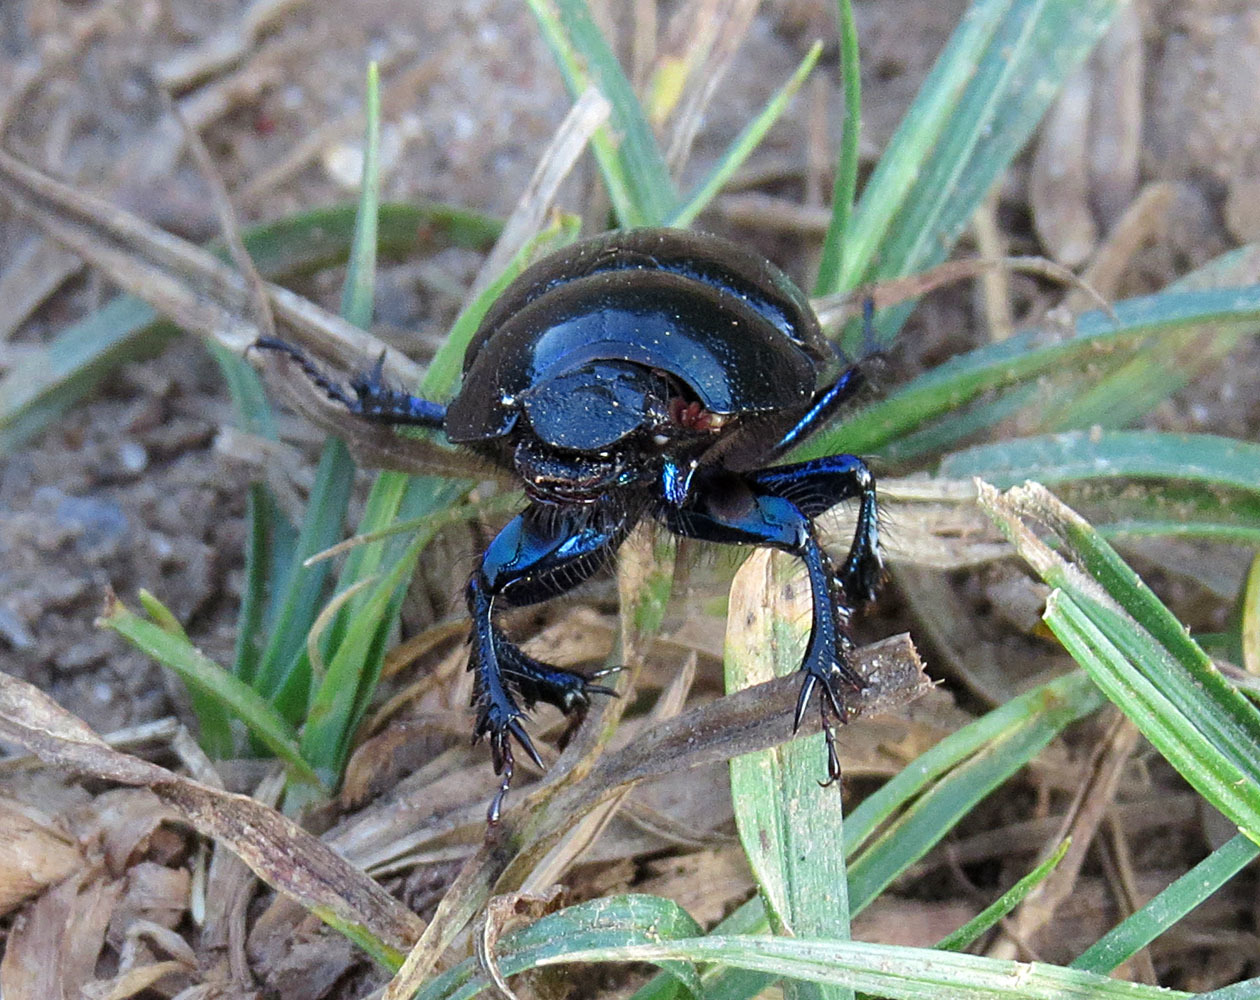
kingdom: Animalia
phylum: Arthropoda
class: Insecta
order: Coleoptera
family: Geotrupidae
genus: Anoplotrupes
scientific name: Anoplotrupes stercorosus
